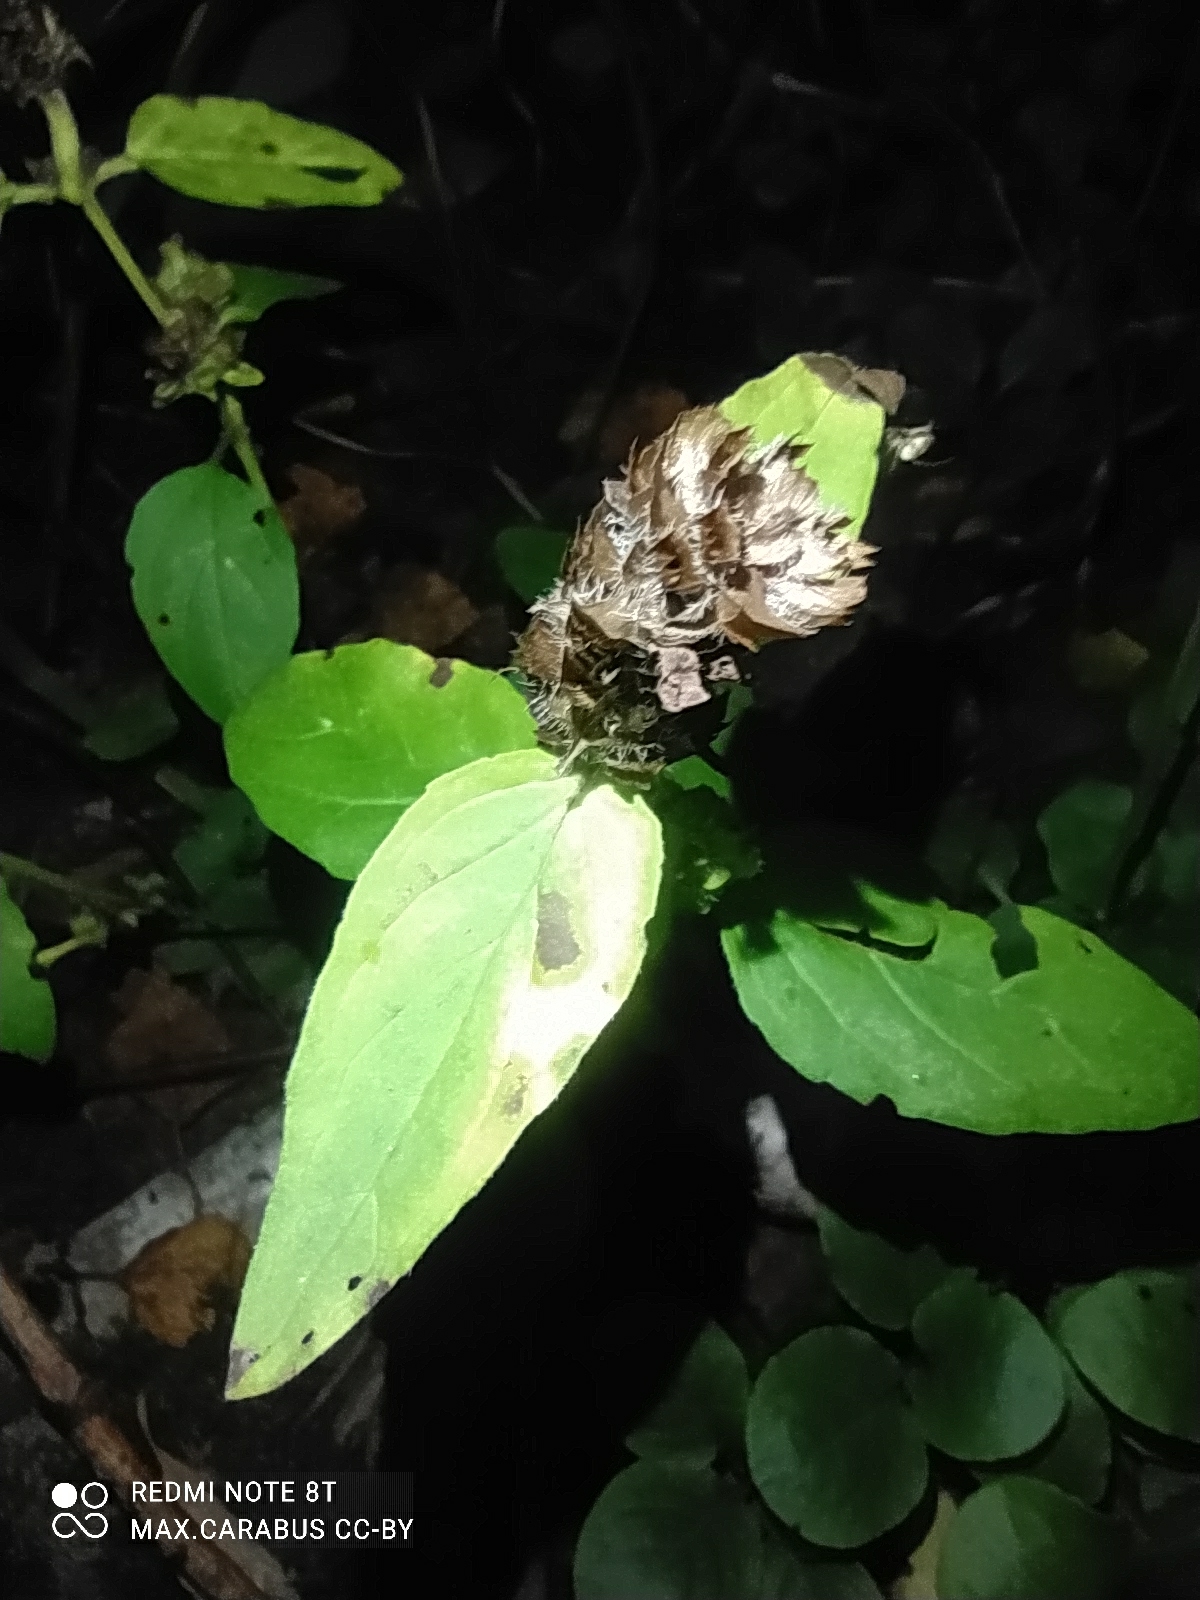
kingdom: Plantae
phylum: Tracheophyta
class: Magnoliopsida
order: Lamiales
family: Lamiaceae
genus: Prunella
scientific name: Prunella vulgaris
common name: Heal-all
